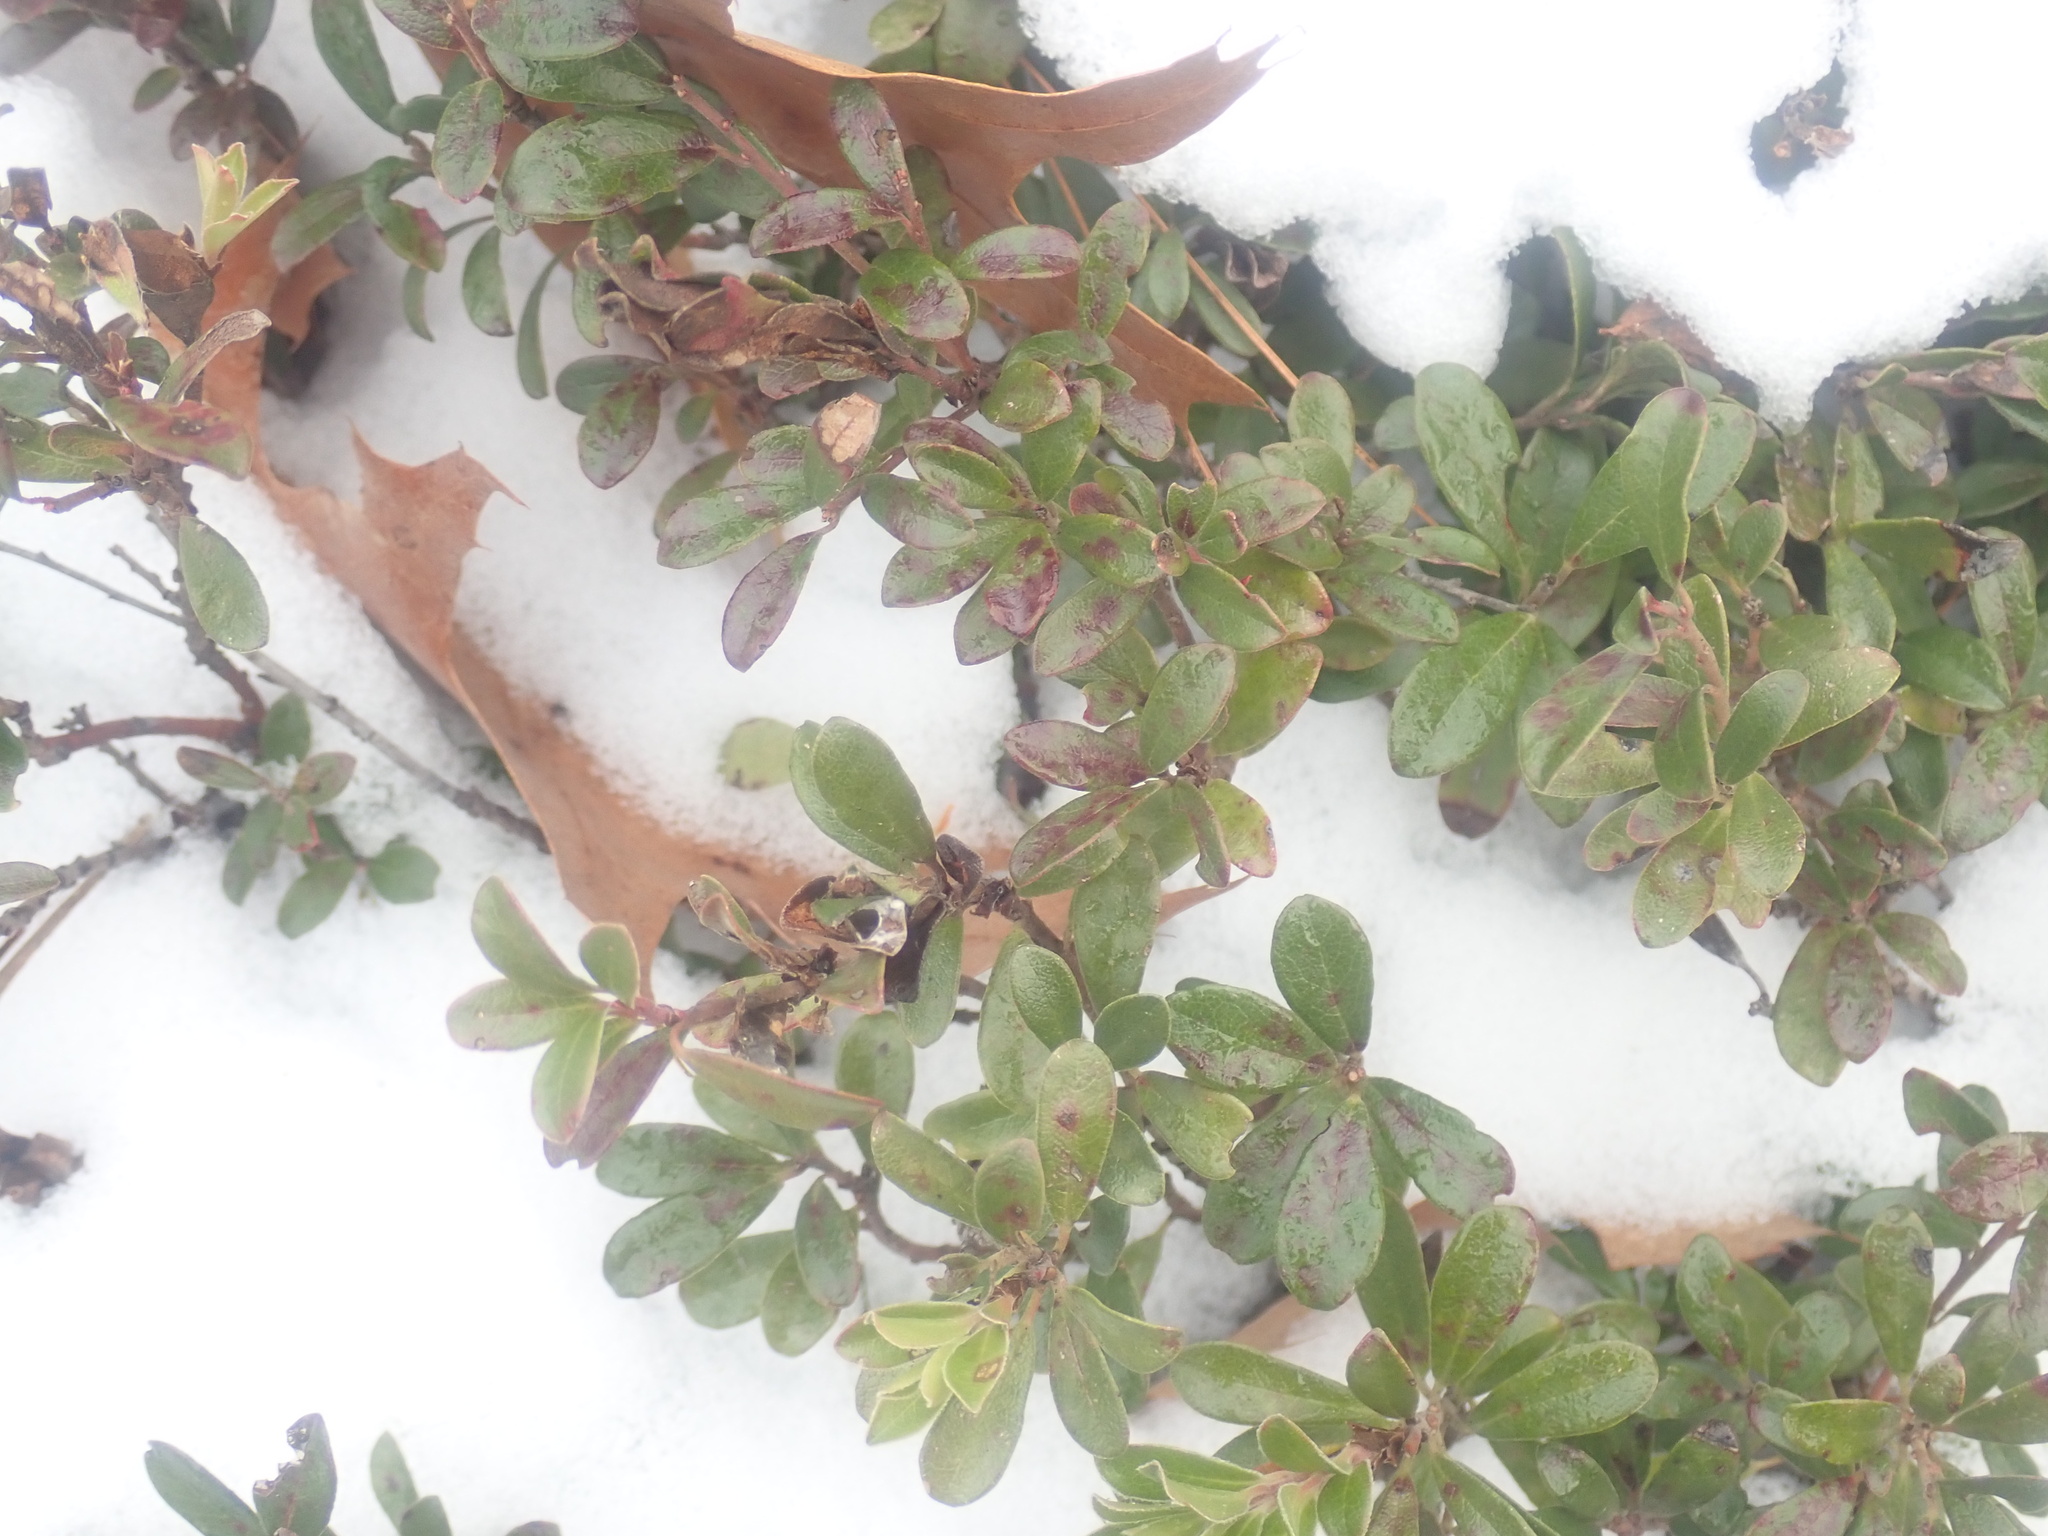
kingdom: Plantae
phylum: Tracheophyta
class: Magnoliopsida
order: Ericales
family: Ericaceae
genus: Arctostaphylos
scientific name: Arctostaphylos uva-ursi
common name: Bearberry
